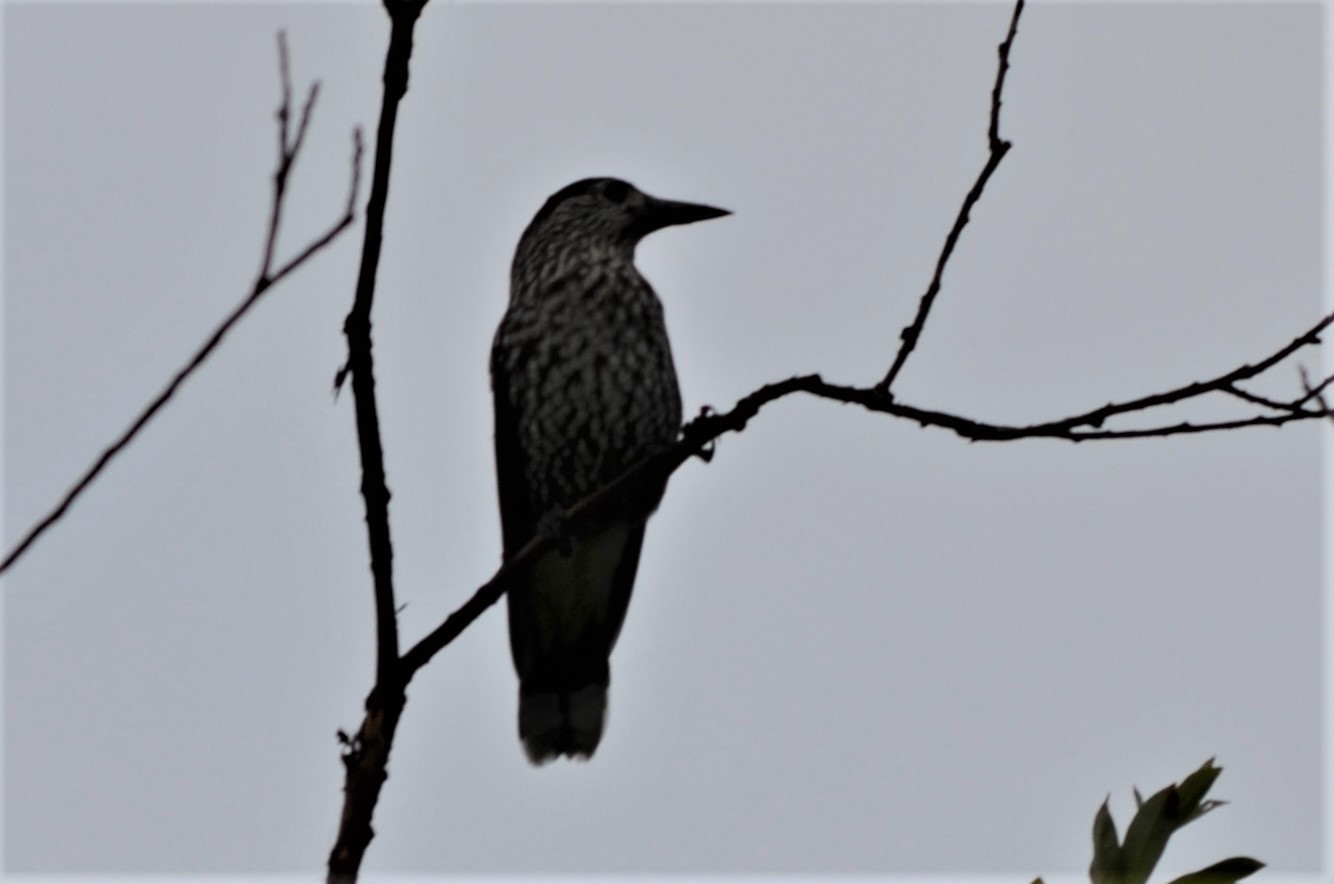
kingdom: Animalia
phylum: Chordata
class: Aves
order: Passeriformes
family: Corvidae
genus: Nucifraga
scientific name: Nucifraga caryocatactes
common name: Spotted nutcracker
